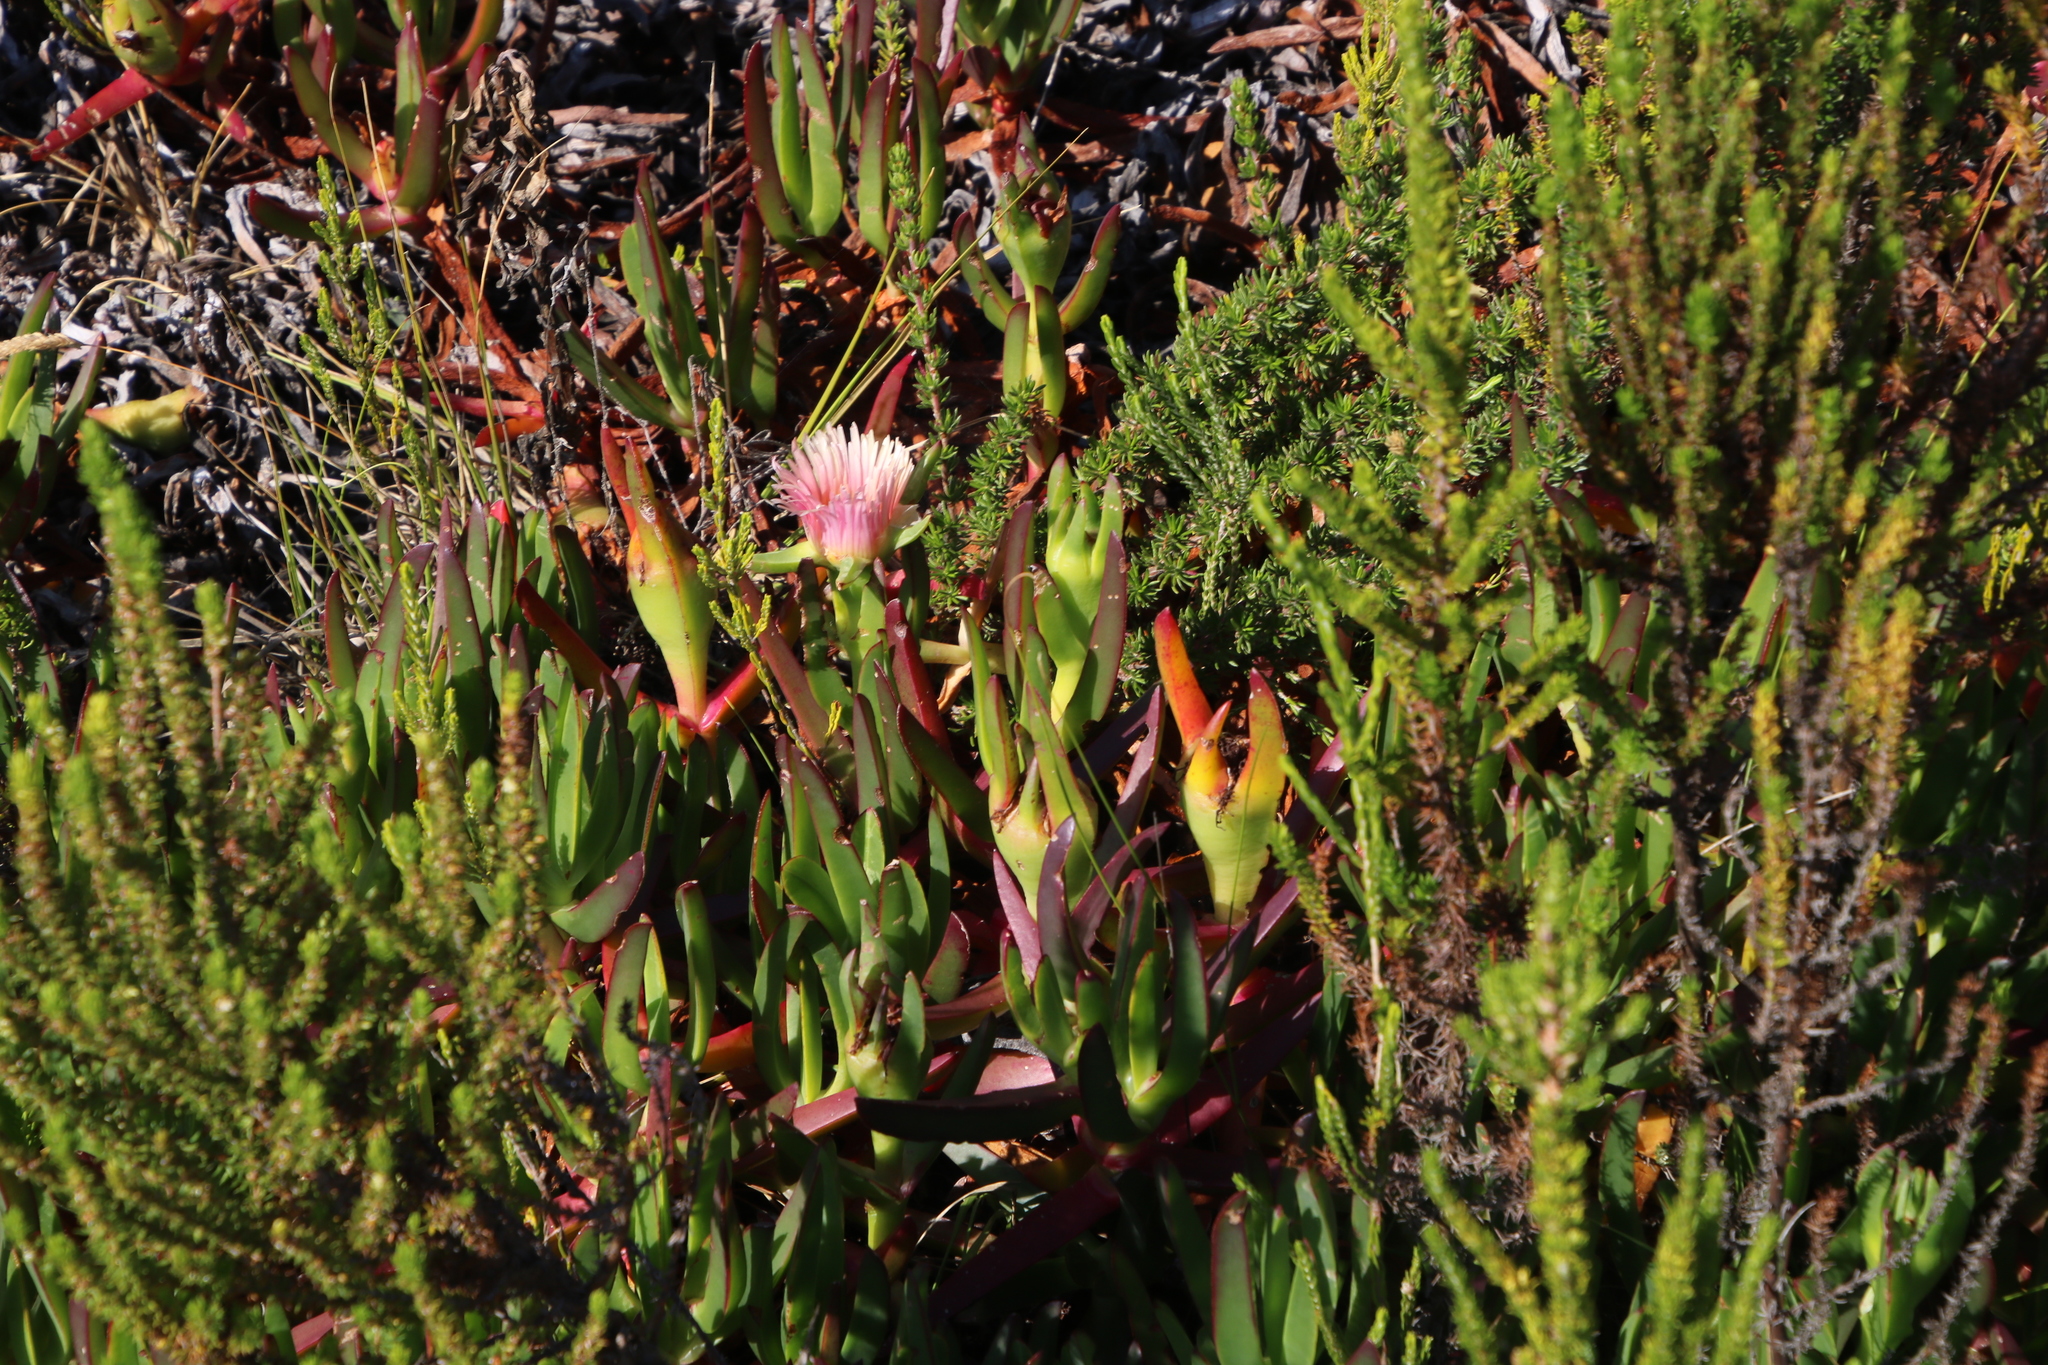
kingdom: Plantae
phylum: Tracheophyta
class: Magnoliopsida
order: Caryophyllales
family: Aizoaceae
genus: Carpobrotus
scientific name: Carpobrotus edulis
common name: Hottentot-fig
